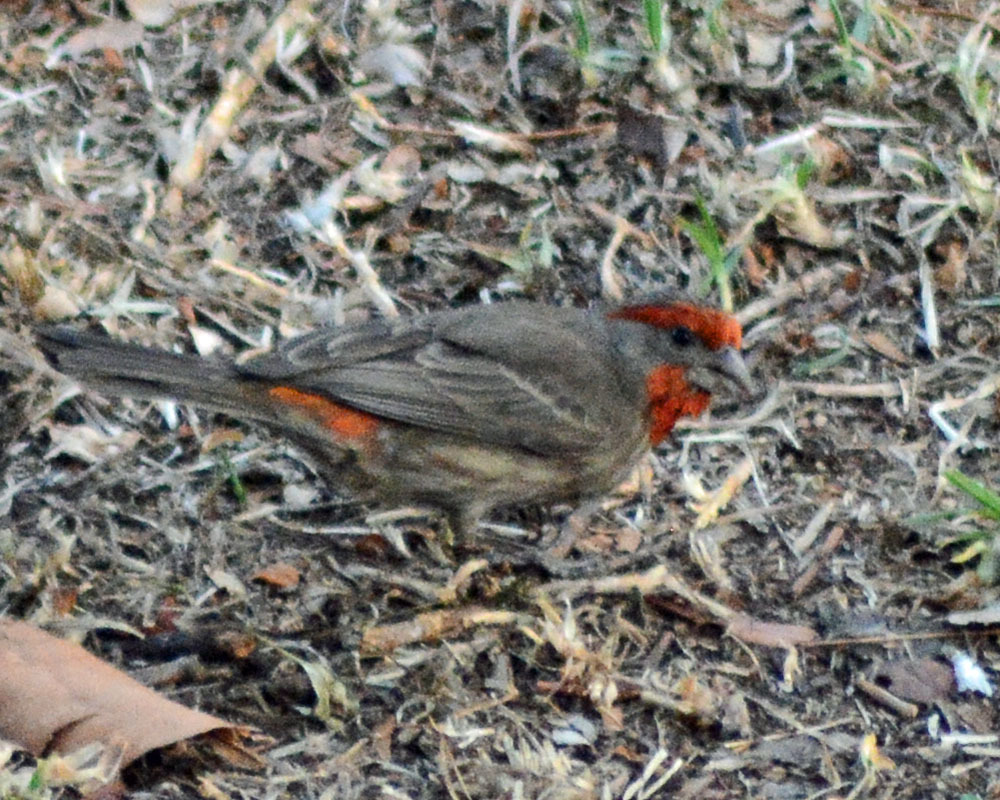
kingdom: Animalia
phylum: Chordata
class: Aves
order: Passeriformes
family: Fringillidae
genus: Haemorhous
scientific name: Haemorhous mexicanus
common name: House finch
